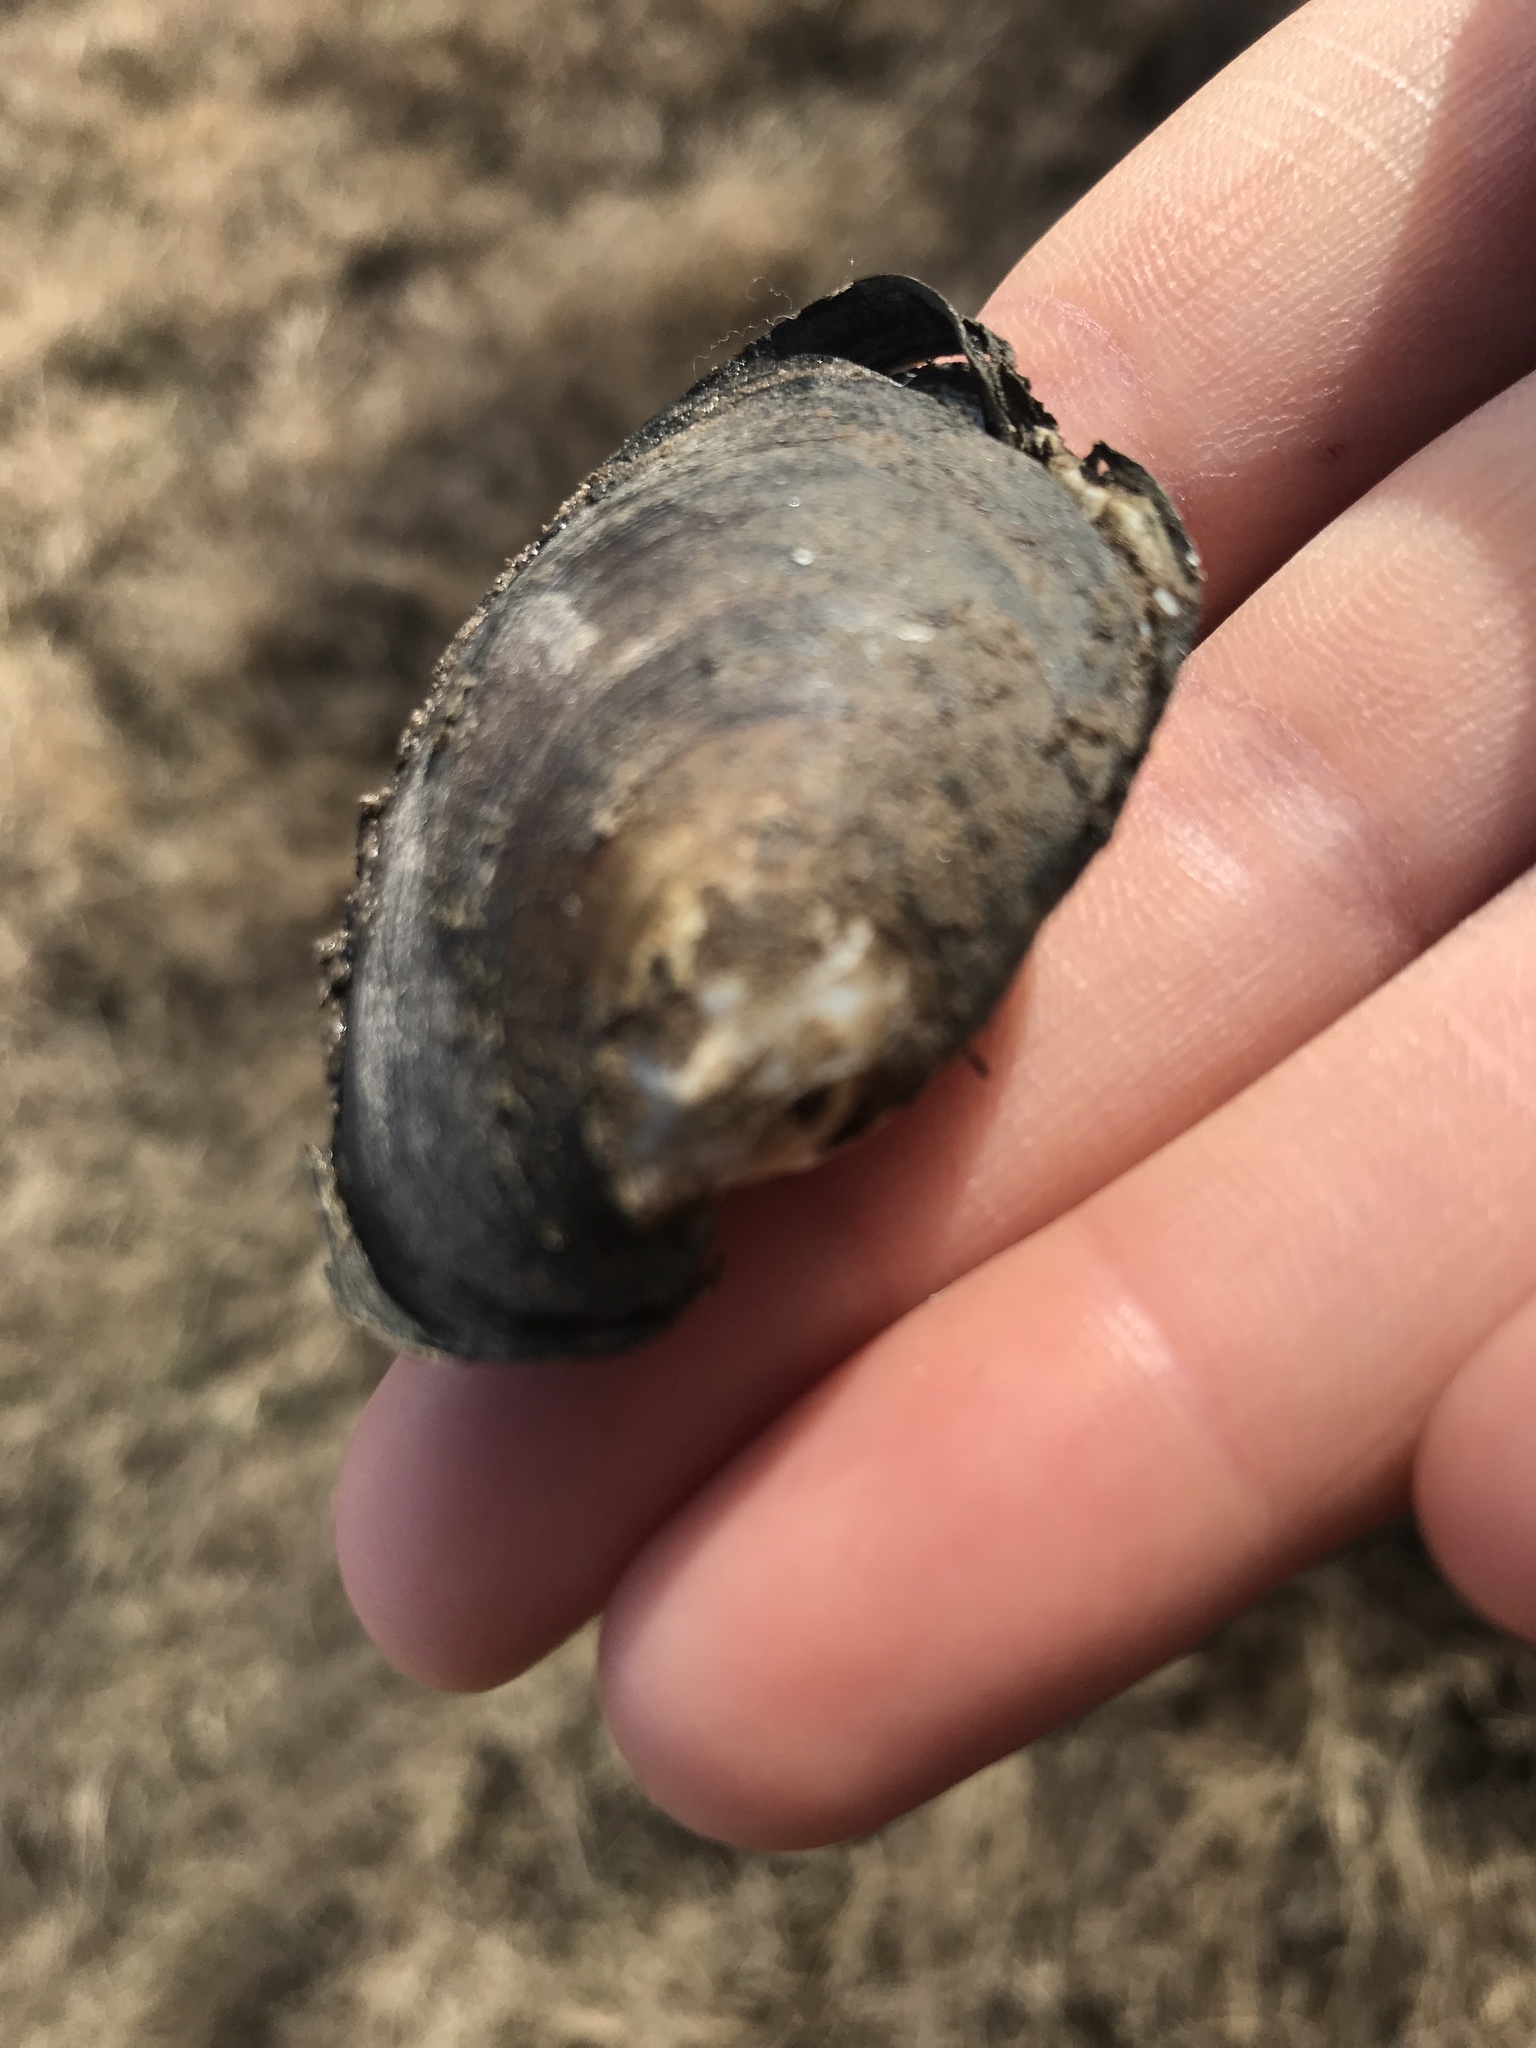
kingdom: Animalia
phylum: Mollusca
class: Bivalvia
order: Unionida
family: Mycetopodidae
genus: Monocondylaea
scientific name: Monocondylaea paraguayana
